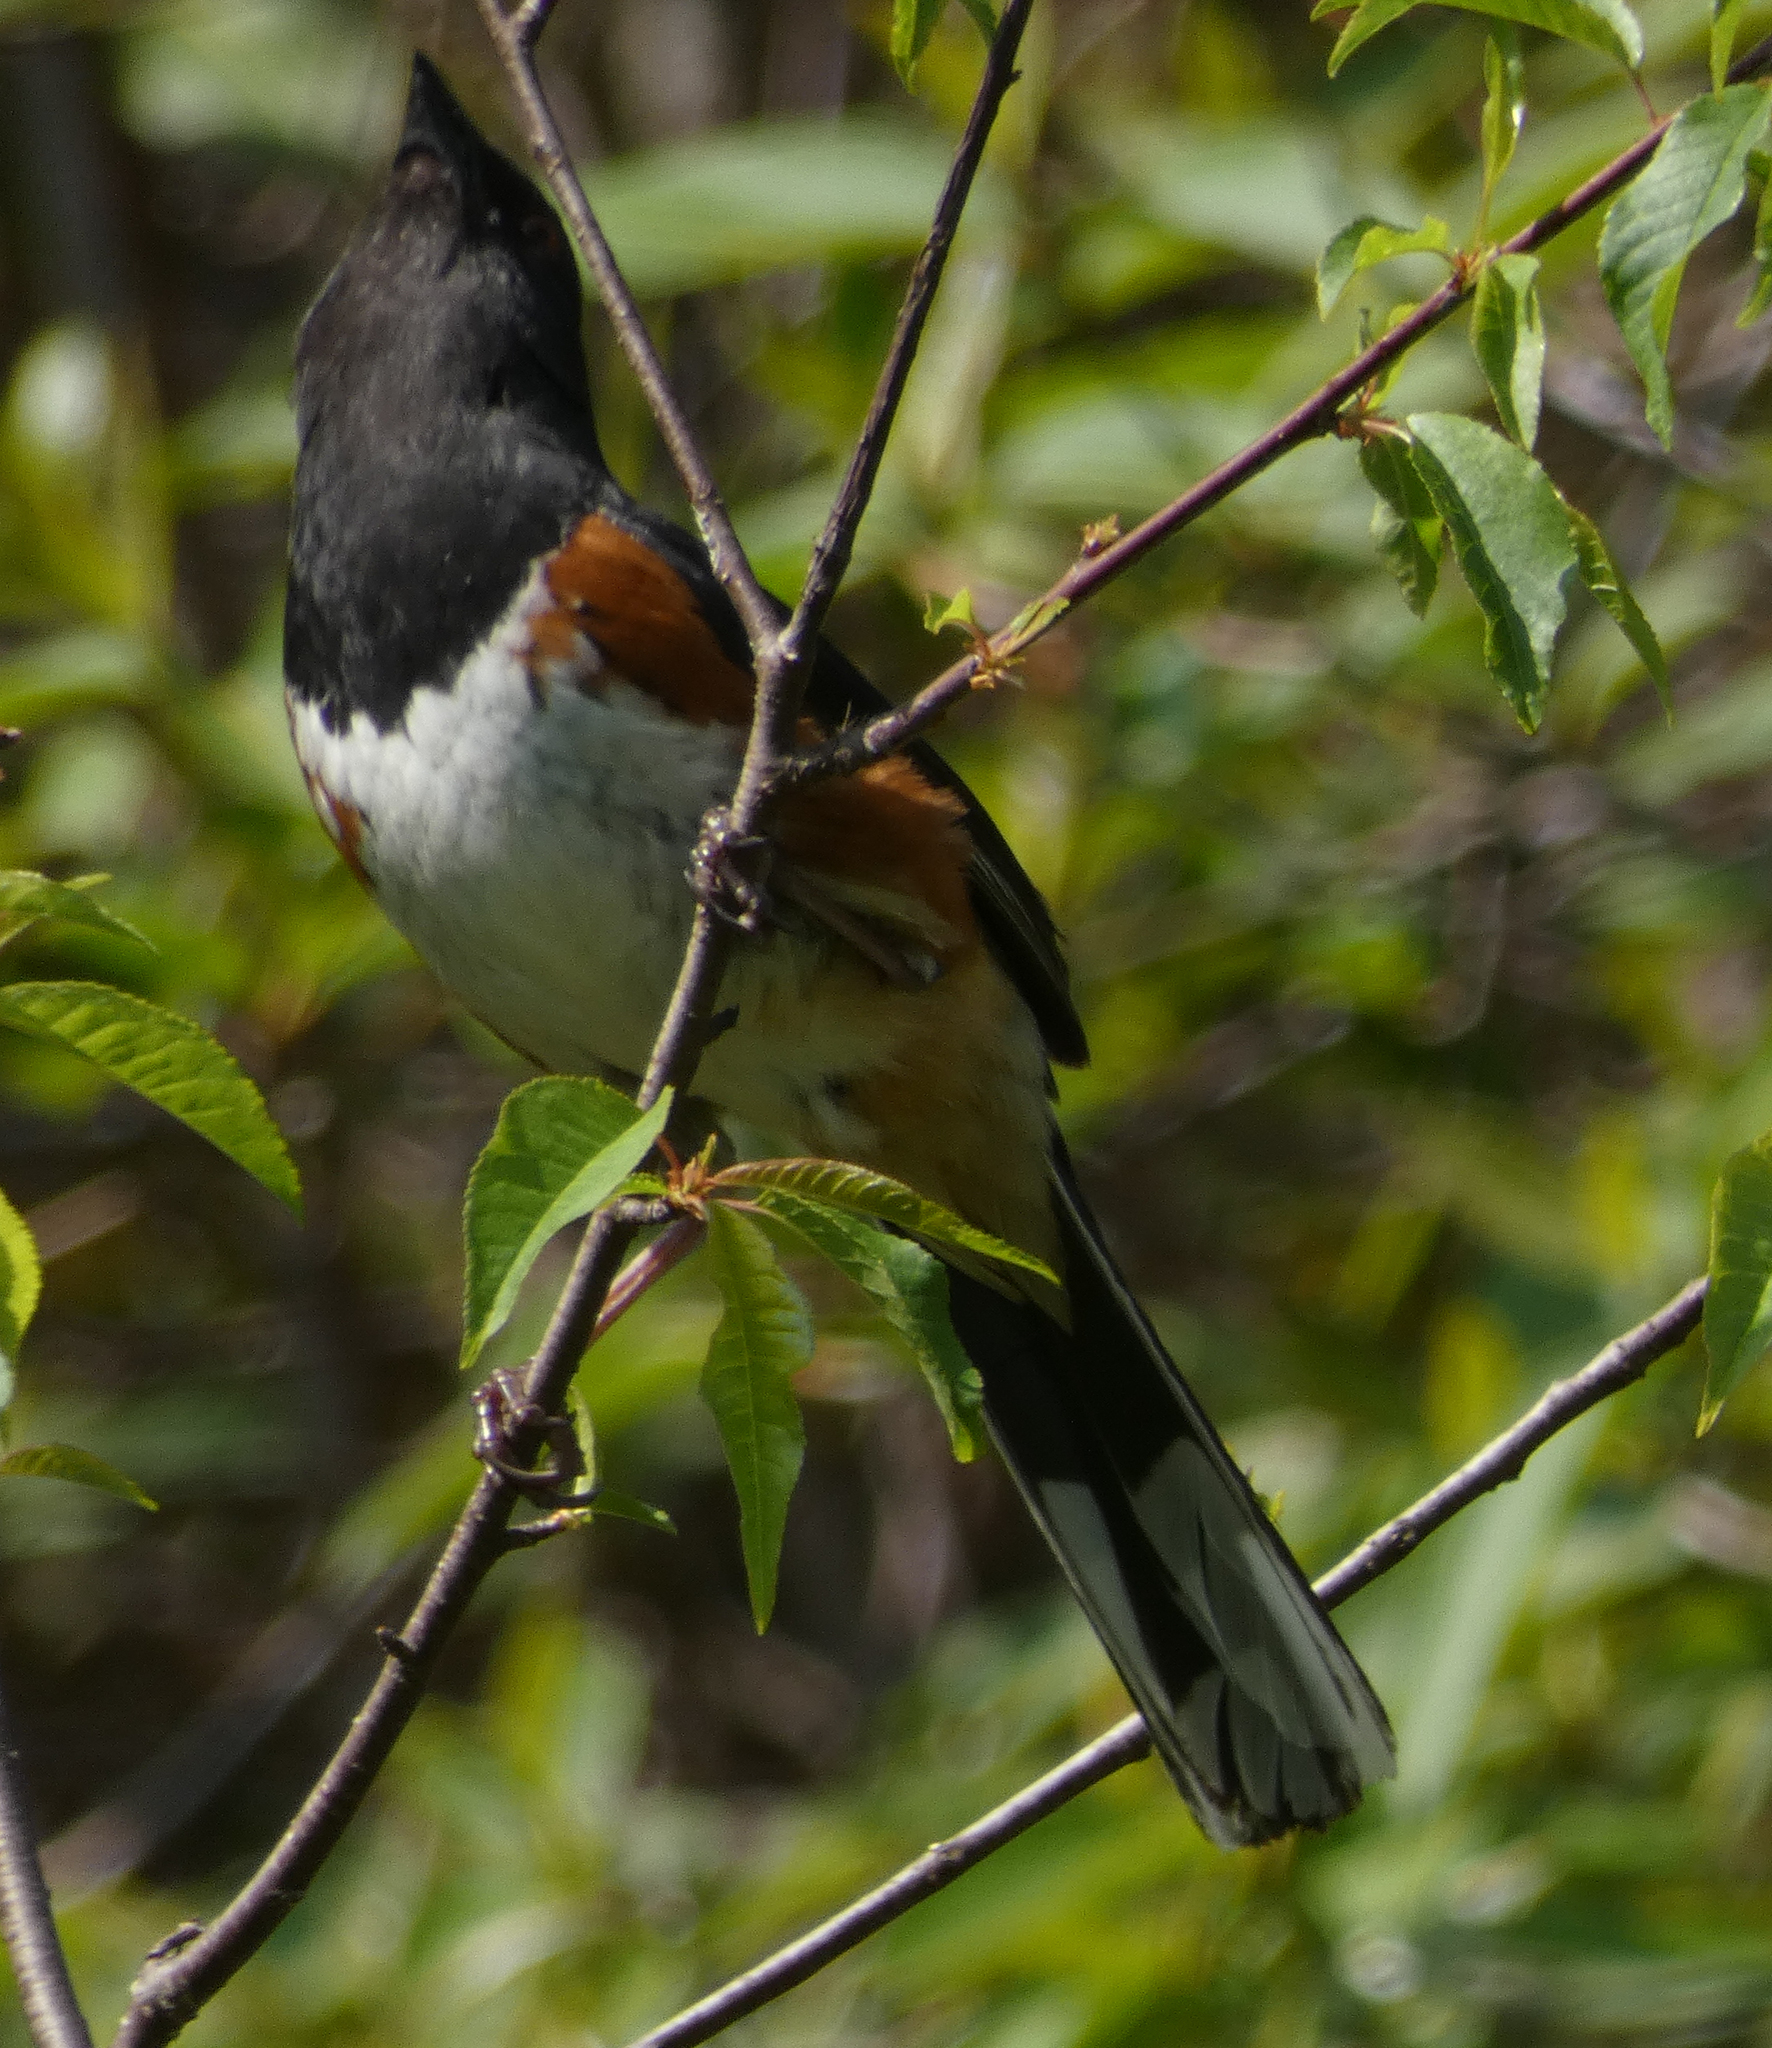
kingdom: Animalia
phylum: Chordata
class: Aves
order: Passeriformes
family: Passerellidae
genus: Pipilo
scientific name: Pipilo erythrophthalmus
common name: Eastern towhee
